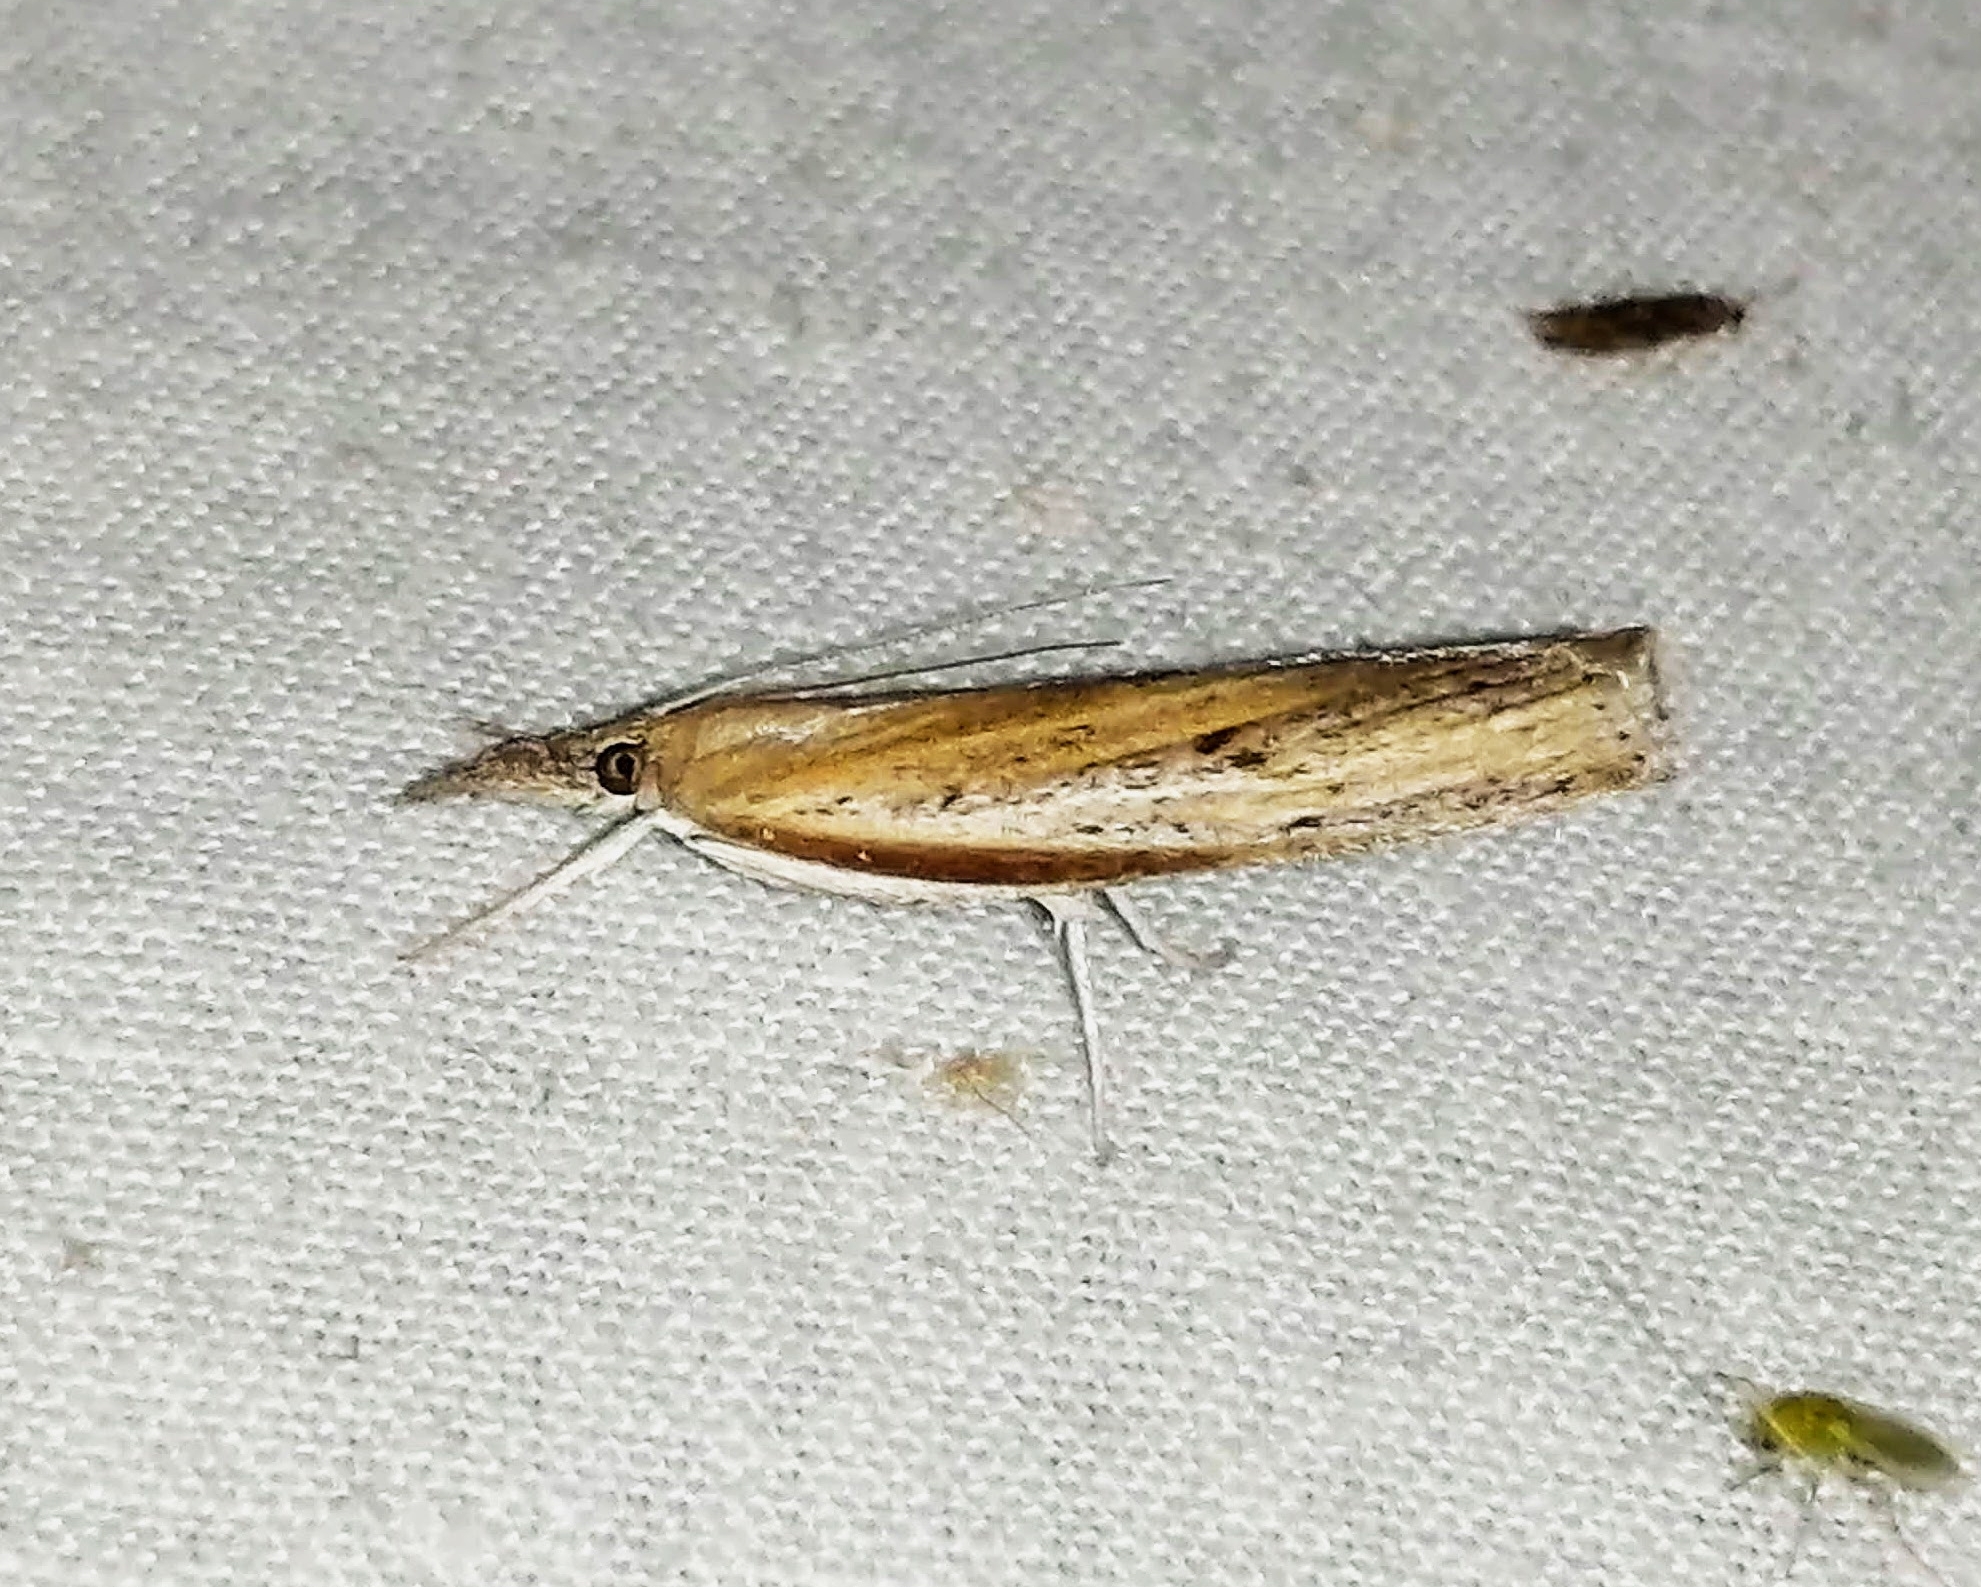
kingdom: Animalia
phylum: Arthropoda
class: Insecta
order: Lepidoptera
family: Crambidae
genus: Fissicrambus
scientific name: Fissicrambus mutabilis
